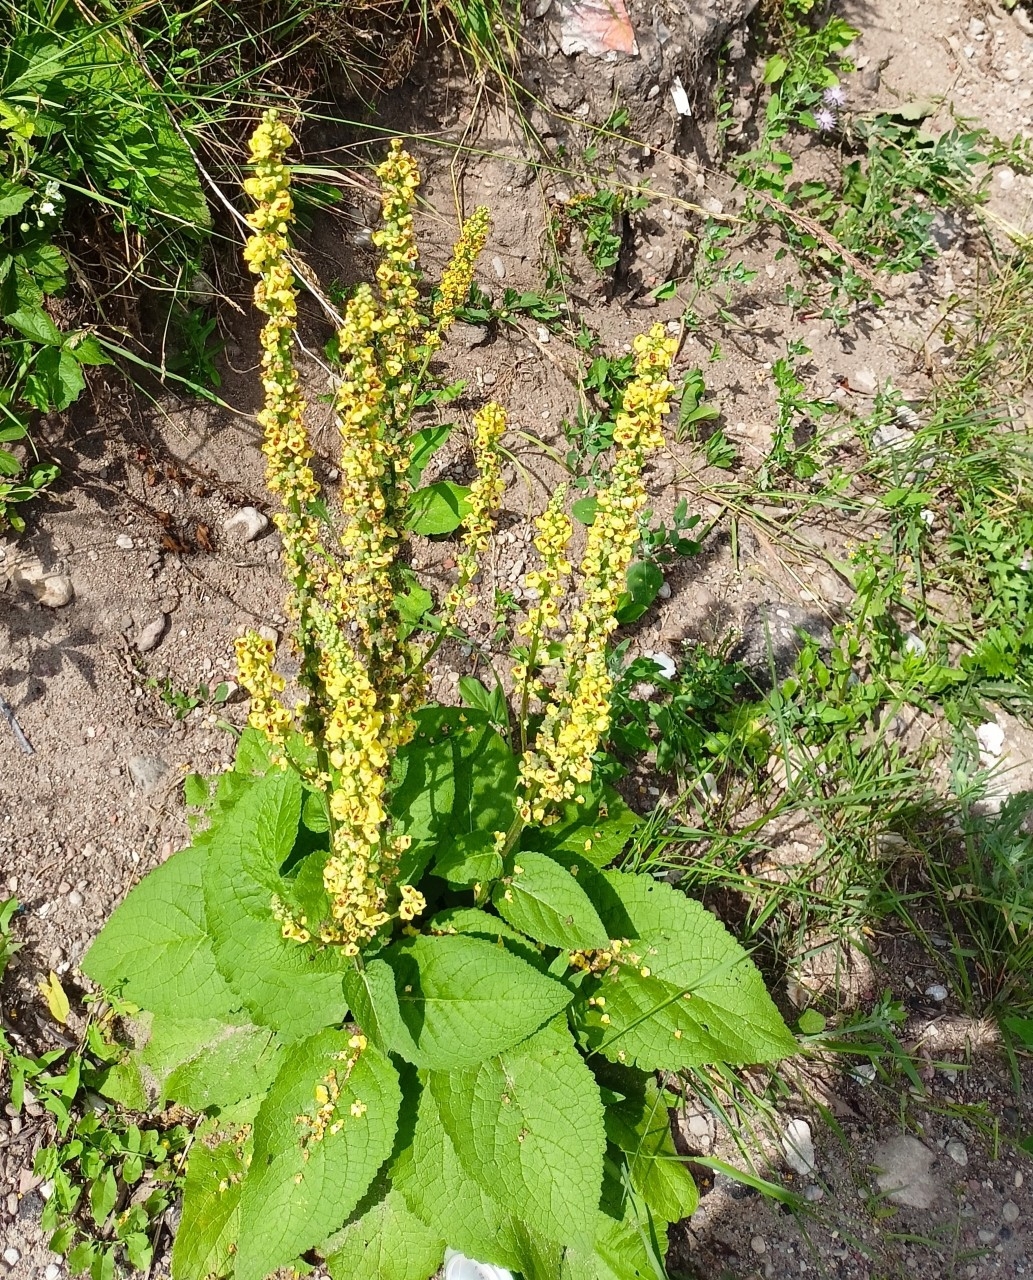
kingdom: Plantae
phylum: Tracheophyta
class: Magnoliopsida
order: Lamiales
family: Scrophulariaceae
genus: Verbascum
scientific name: Verbascum nigrum
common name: Dark mullein
